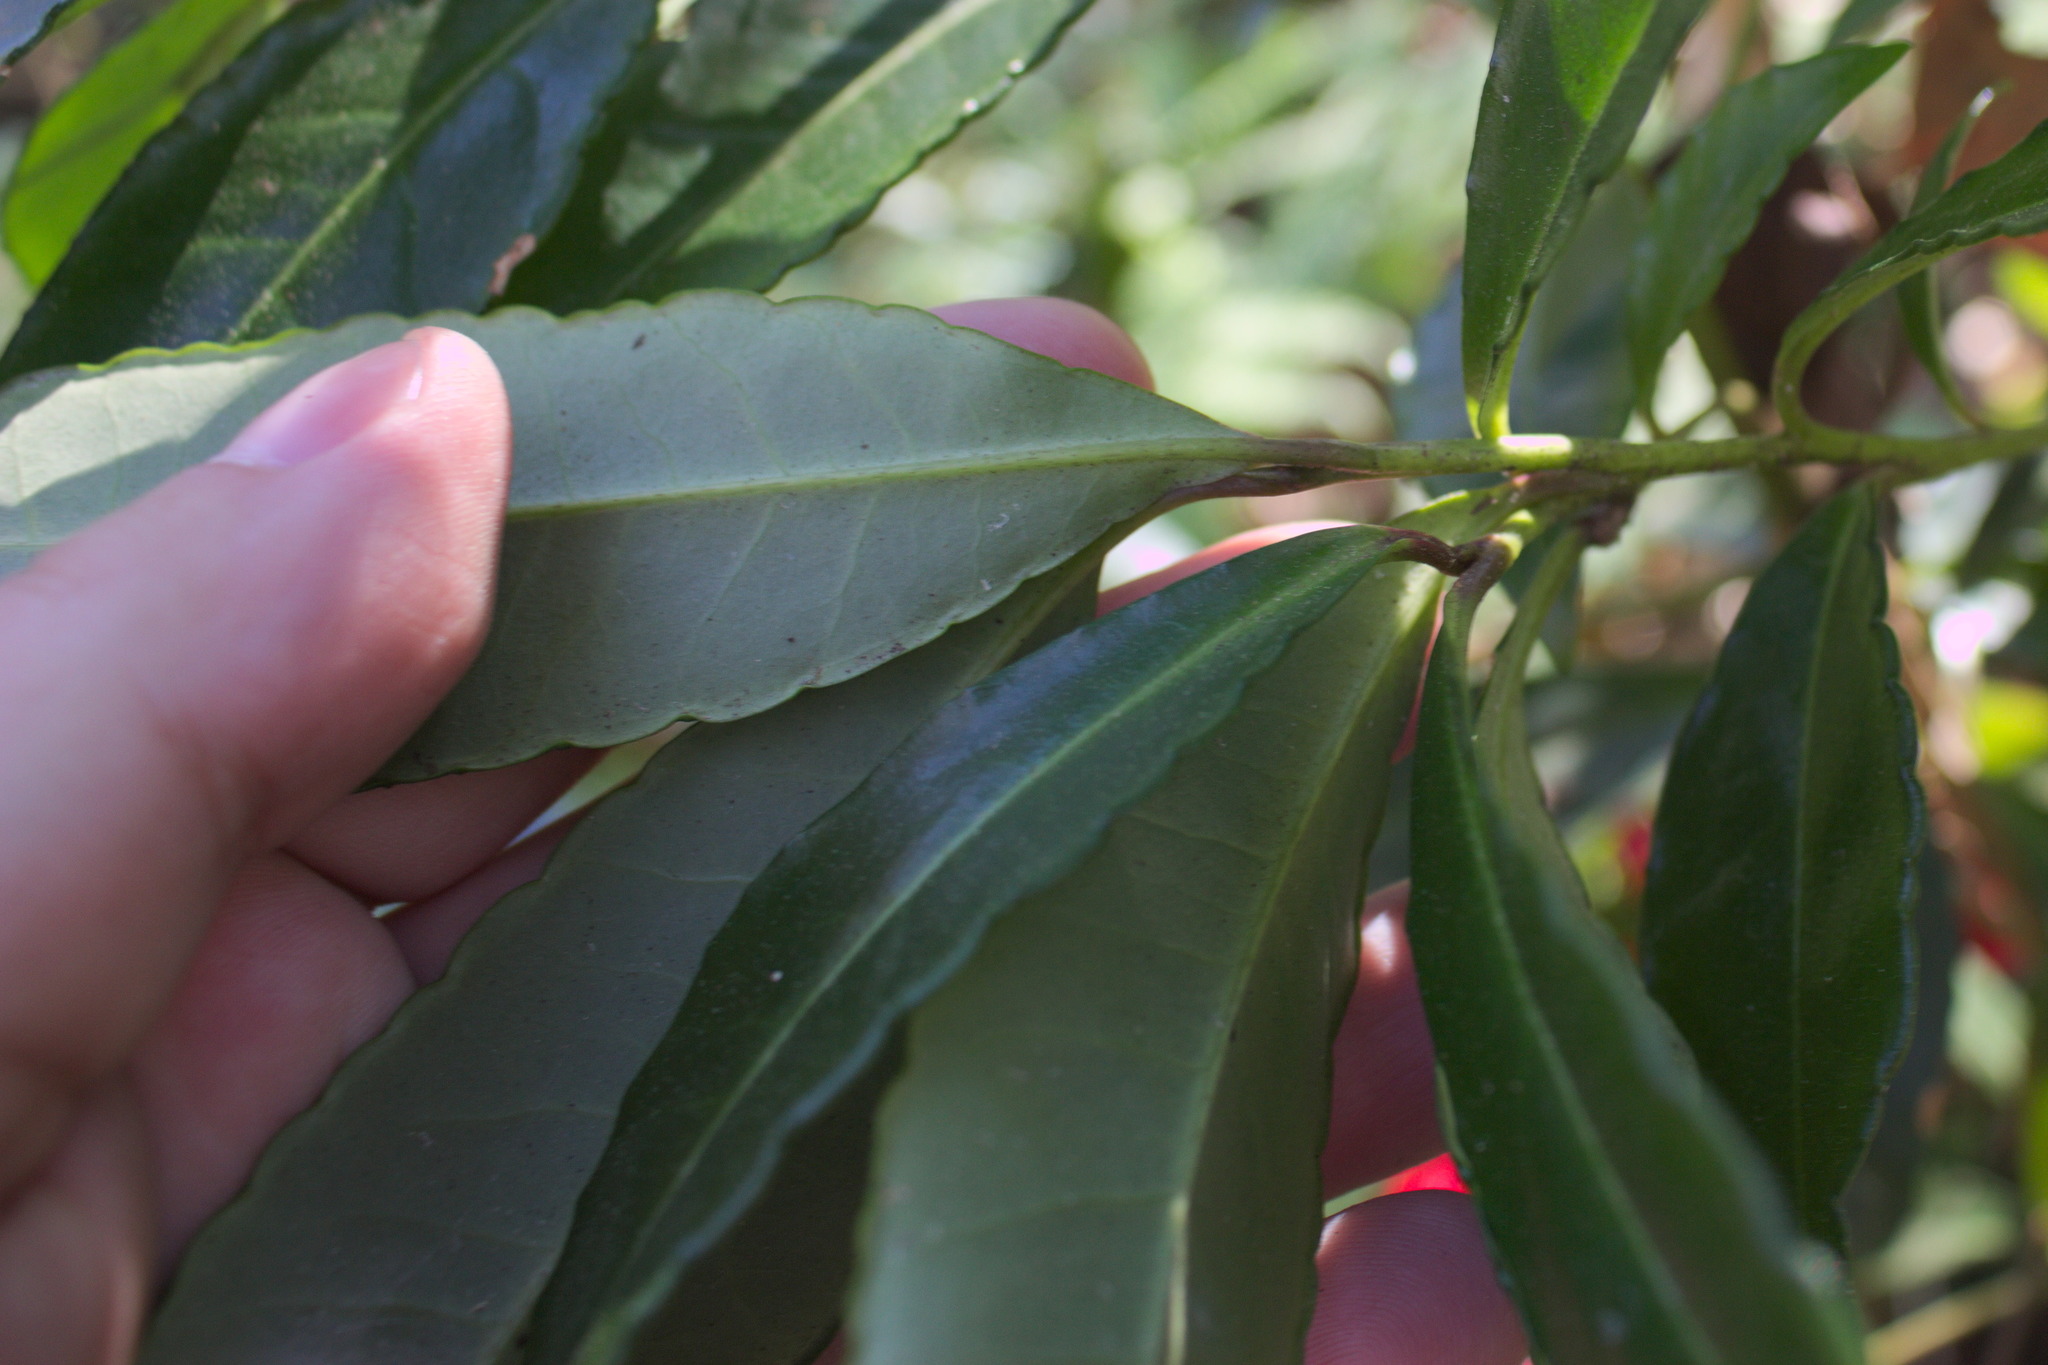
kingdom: Plantae
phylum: Tracheophyta
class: Magnoliopsida
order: Ericales
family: Primulaceae
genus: Ardisia
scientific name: Ardisia crenata
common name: Hen's eyes
